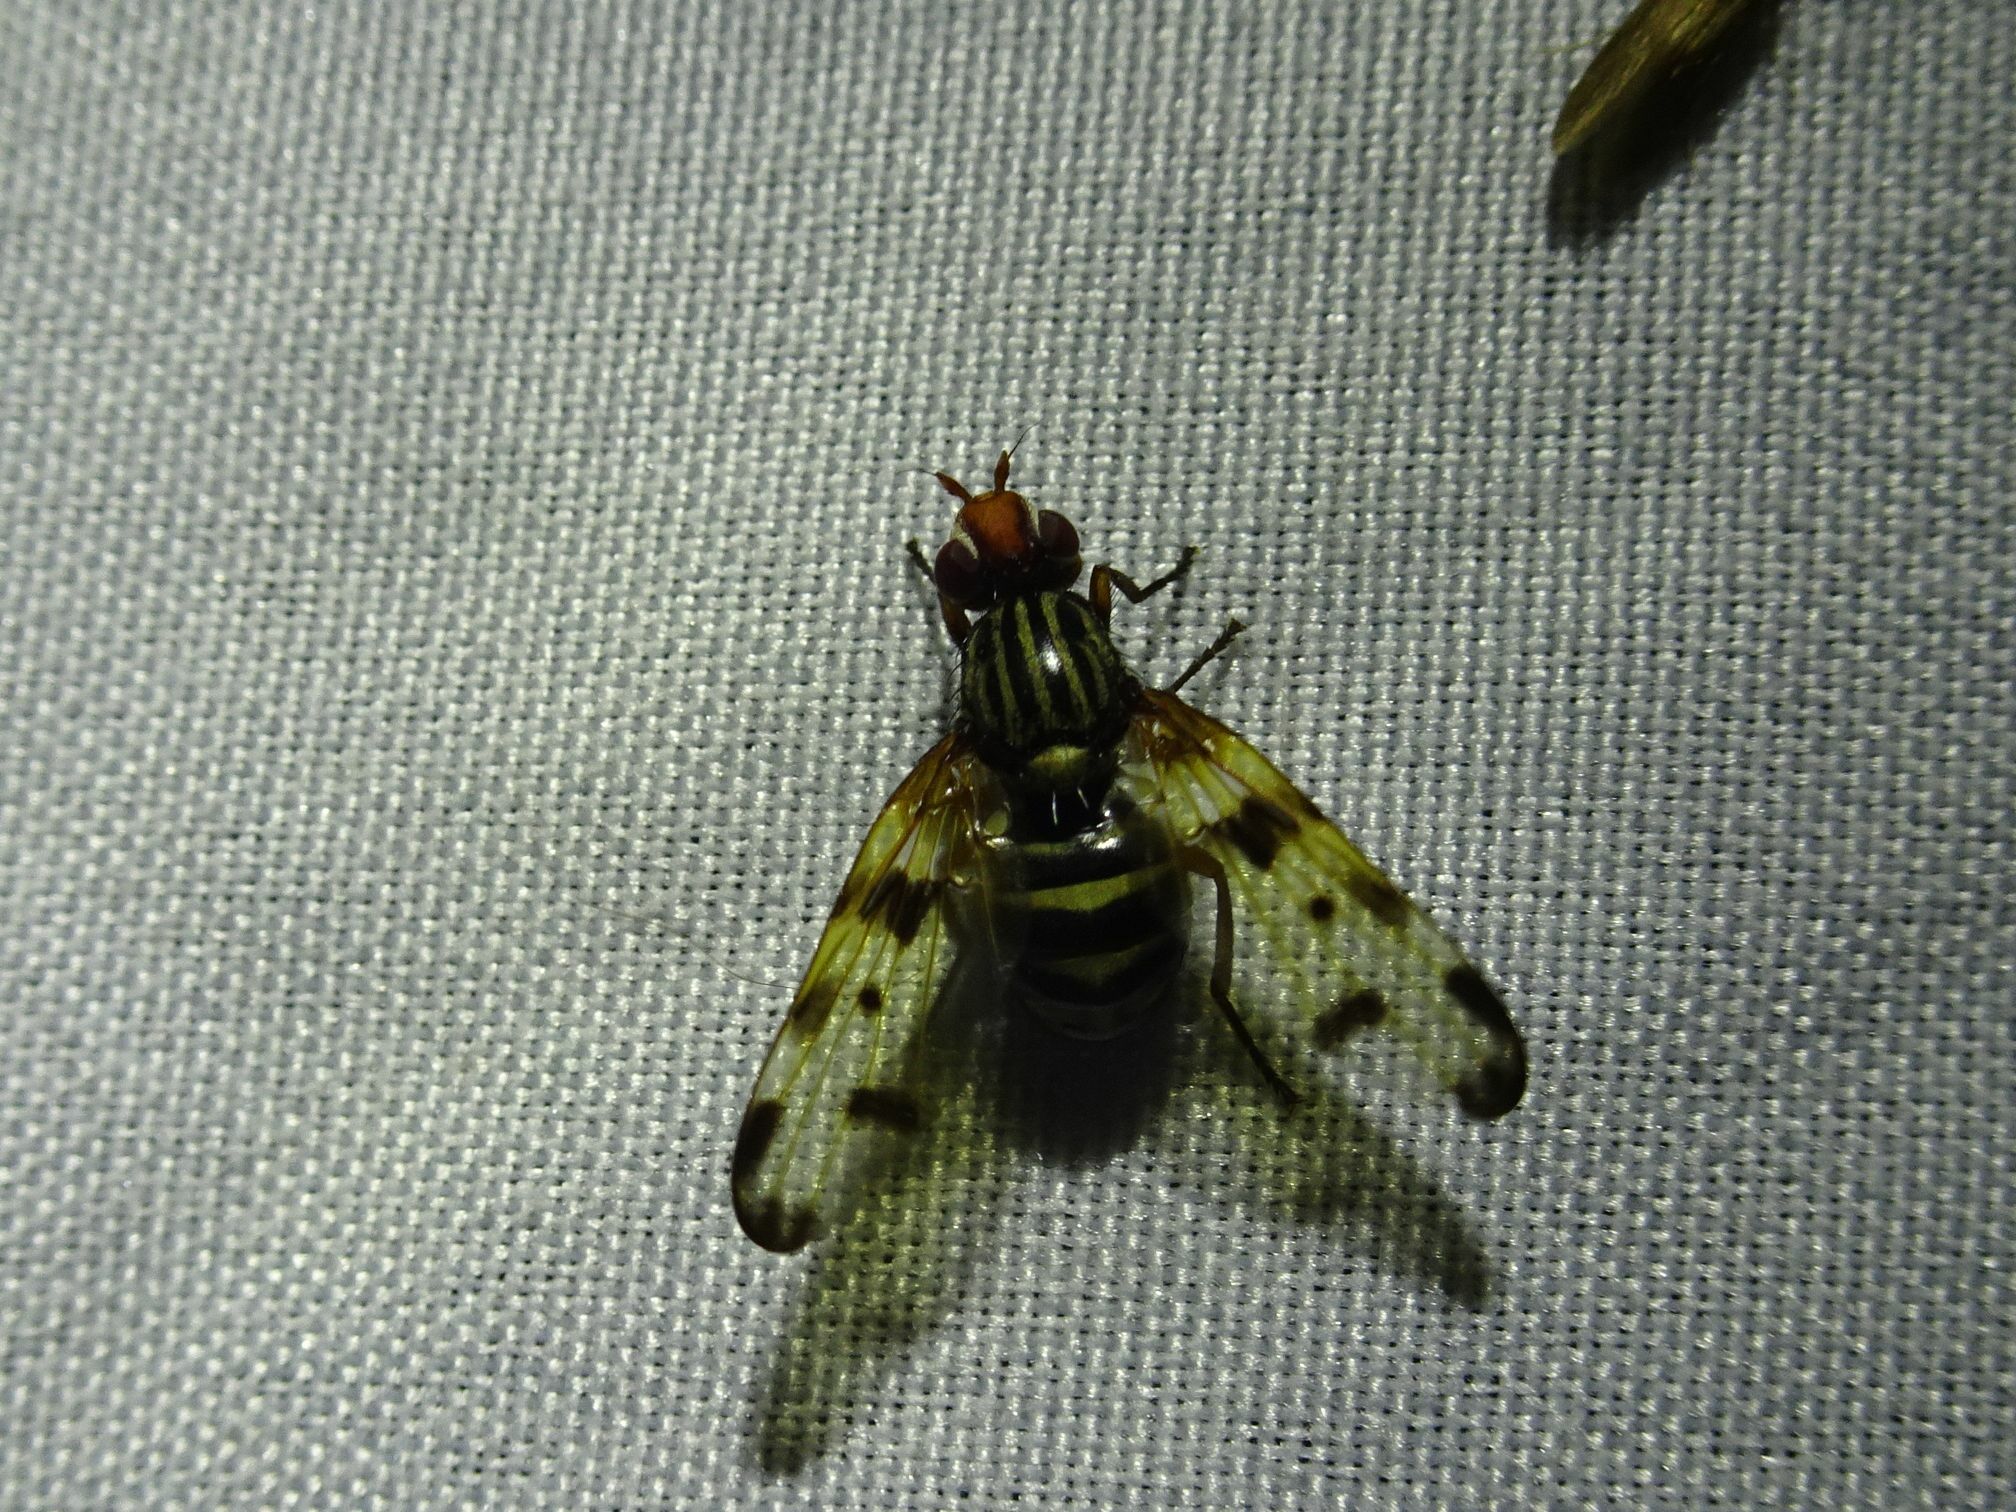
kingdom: Animalia
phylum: Arthropoda
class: Insecta
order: Diptera
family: Ulidiidae
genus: Otites
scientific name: Otites porcus
